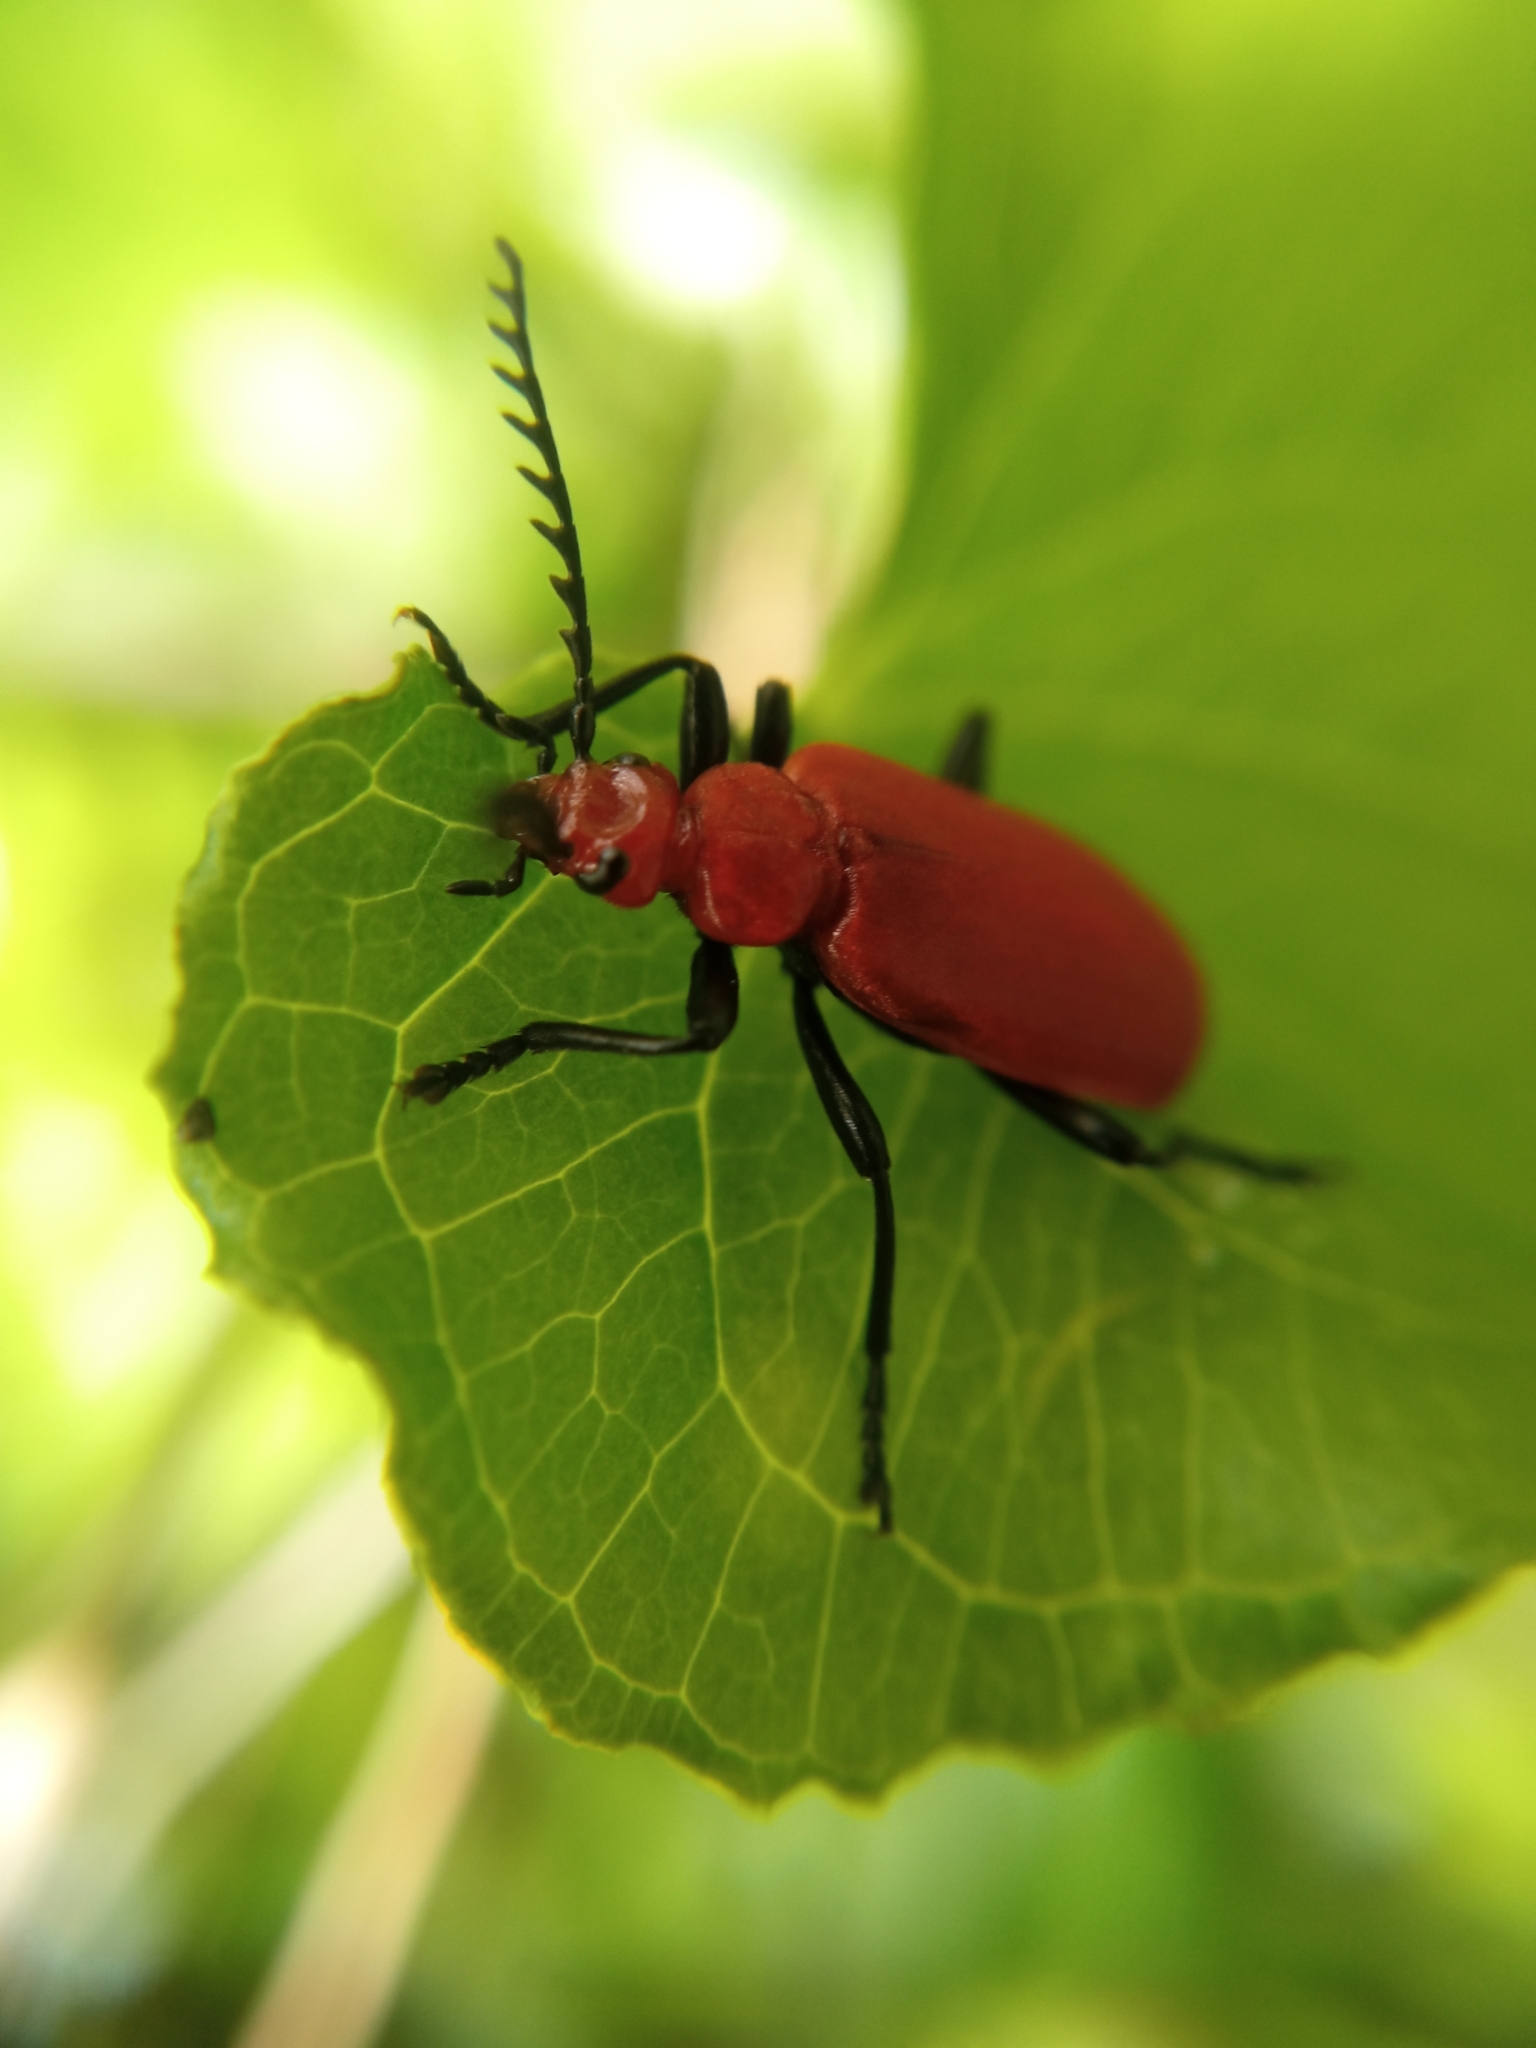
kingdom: Animalia
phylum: Arthropoda
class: Insecta
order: Coleoptera
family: Pyrochroidae
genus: Pyrochroa
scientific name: Pyrochroa serraticornis
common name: Red-headed cardinal beetle
